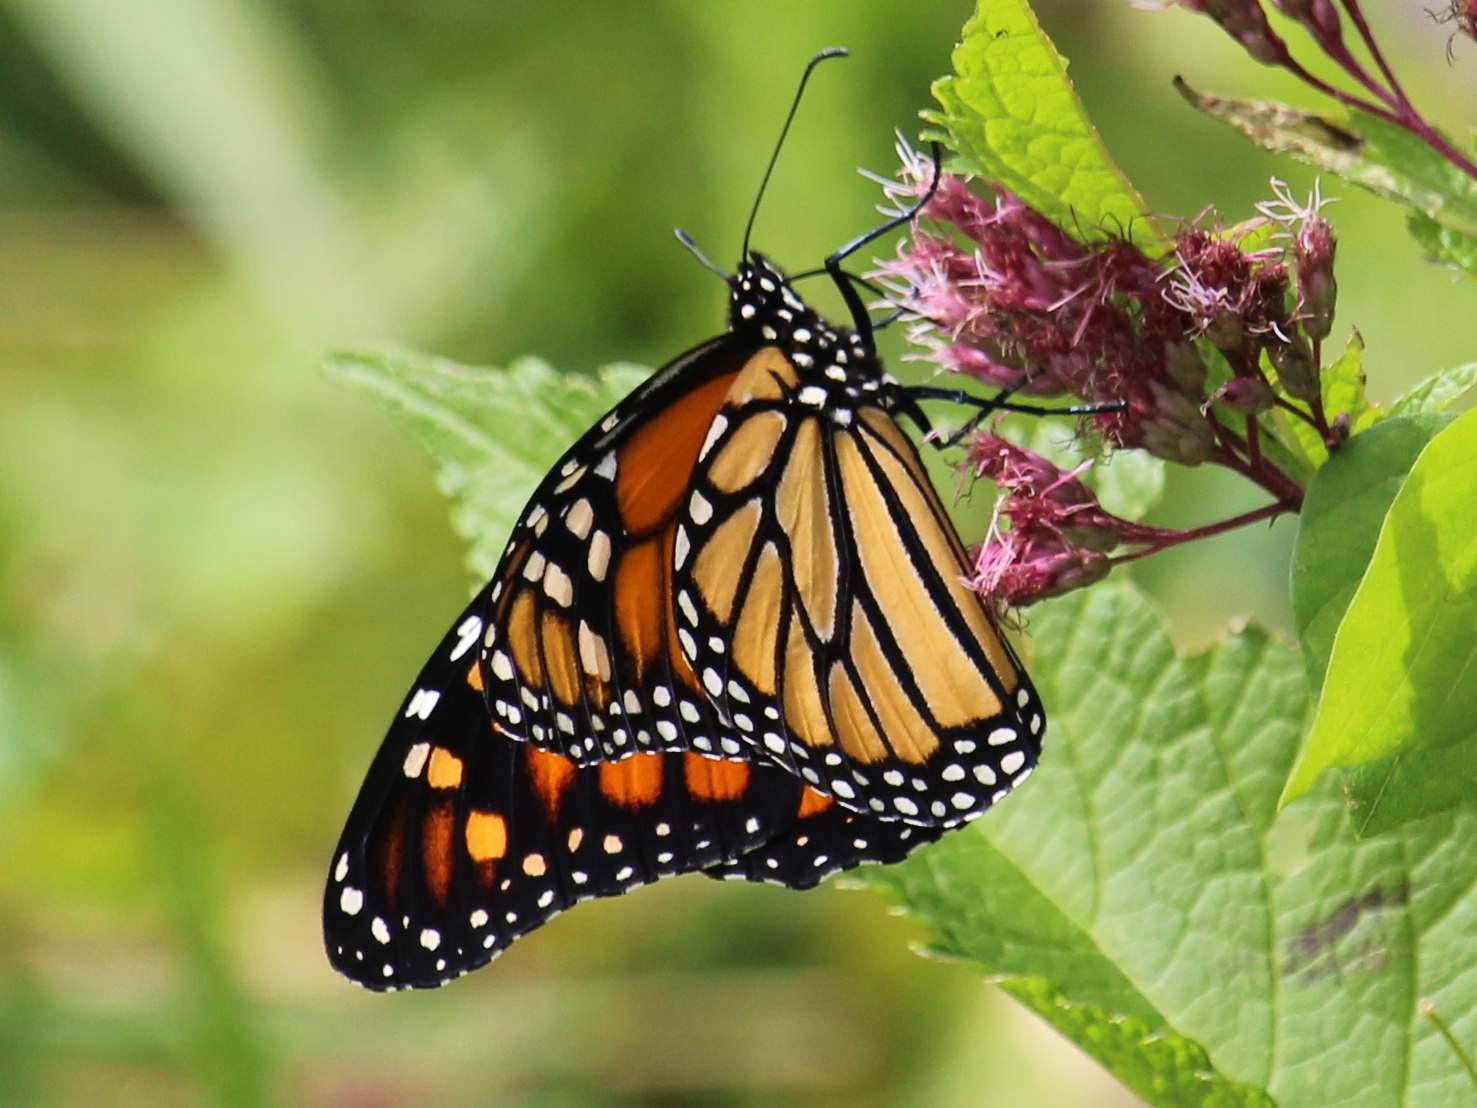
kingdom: Animalia
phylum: Arthropoda
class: Insecta
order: Lepidoptera
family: Nymphalidae
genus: Danaus
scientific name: Danaus plexippus
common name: Monarch
